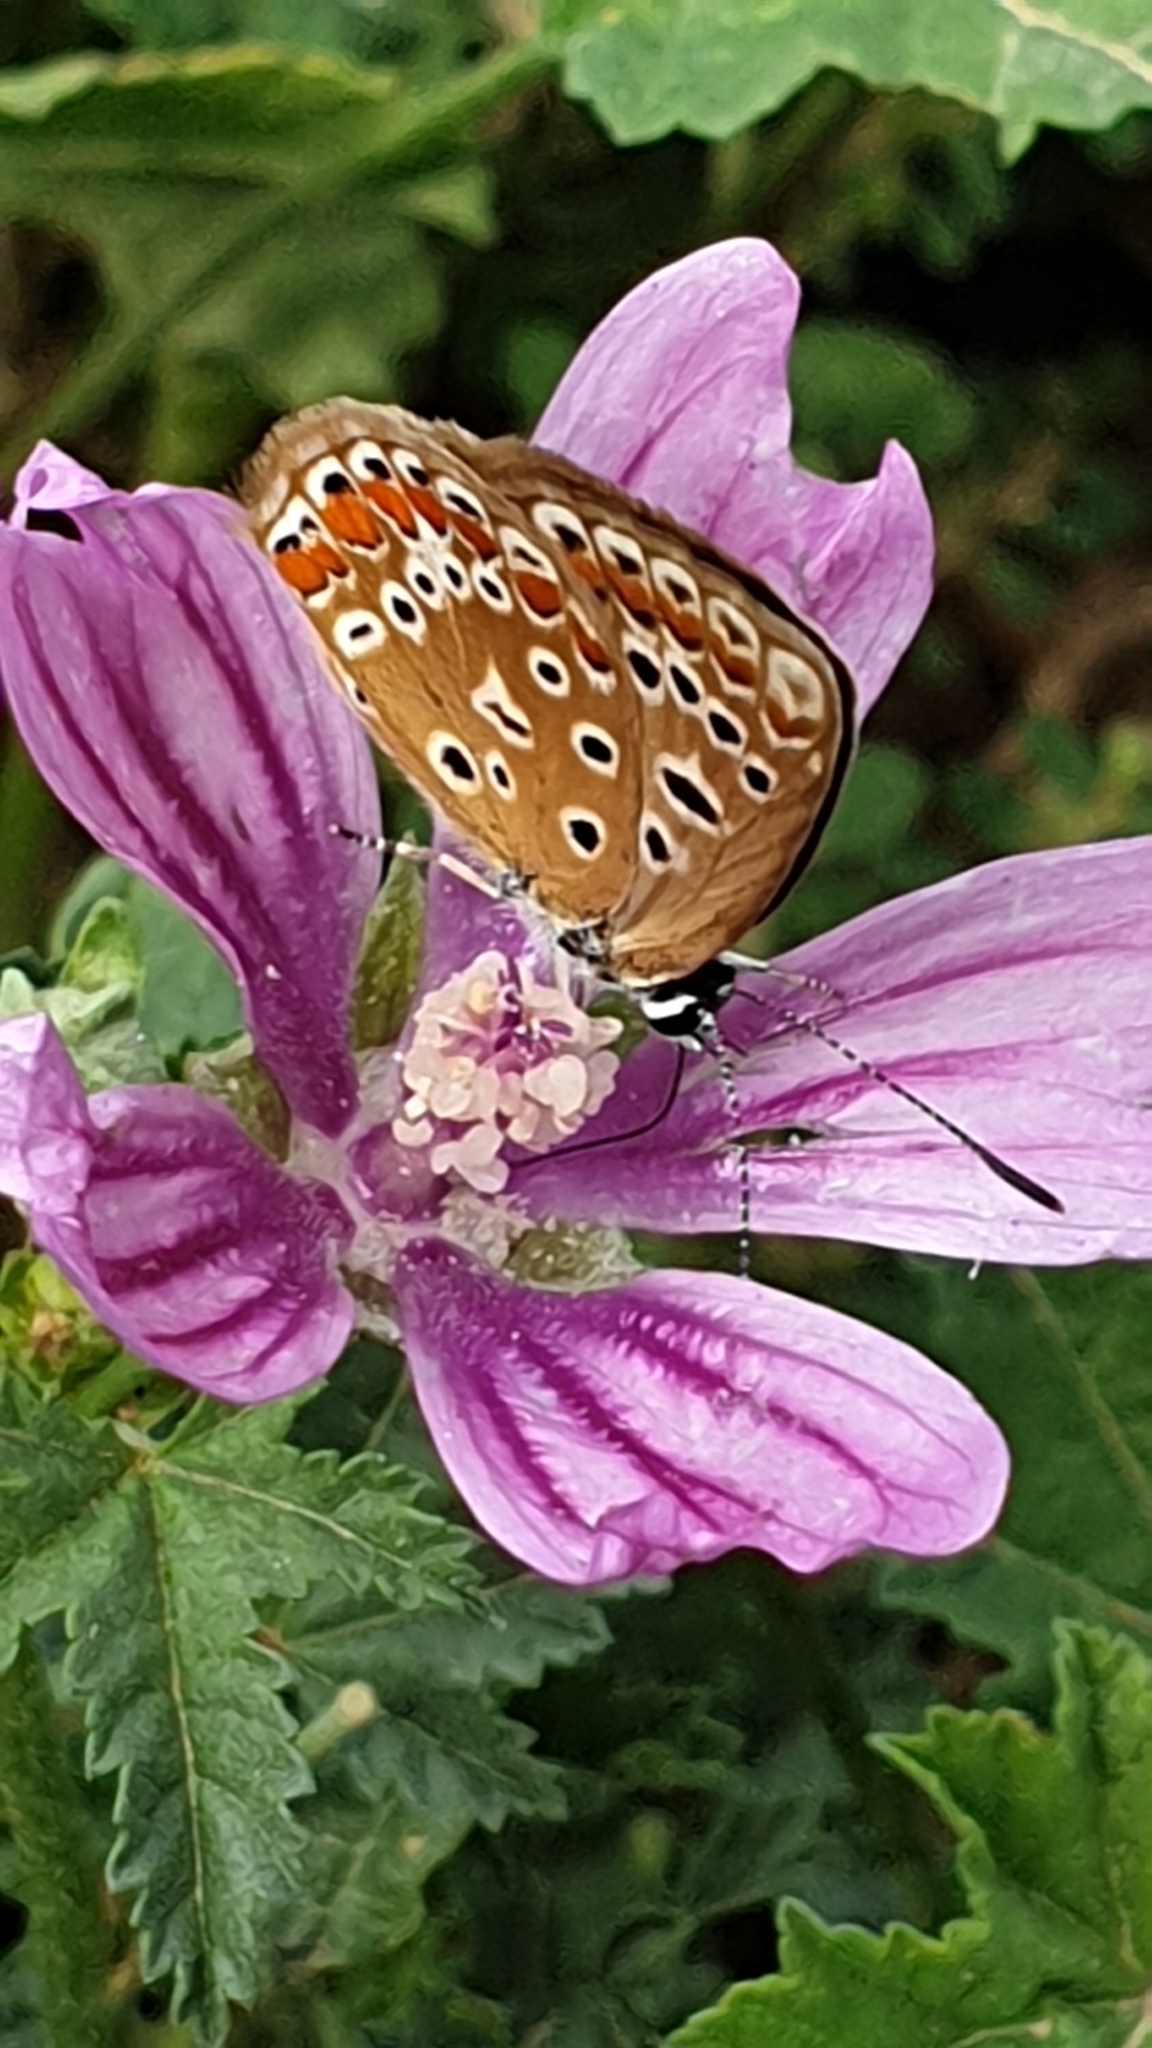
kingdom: Animalia
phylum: Arthropoda
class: Insecta
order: Lepidoptera
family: Lycaenidae
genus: Polyommatus
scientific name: Polyommatus icarus
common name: Common blue
